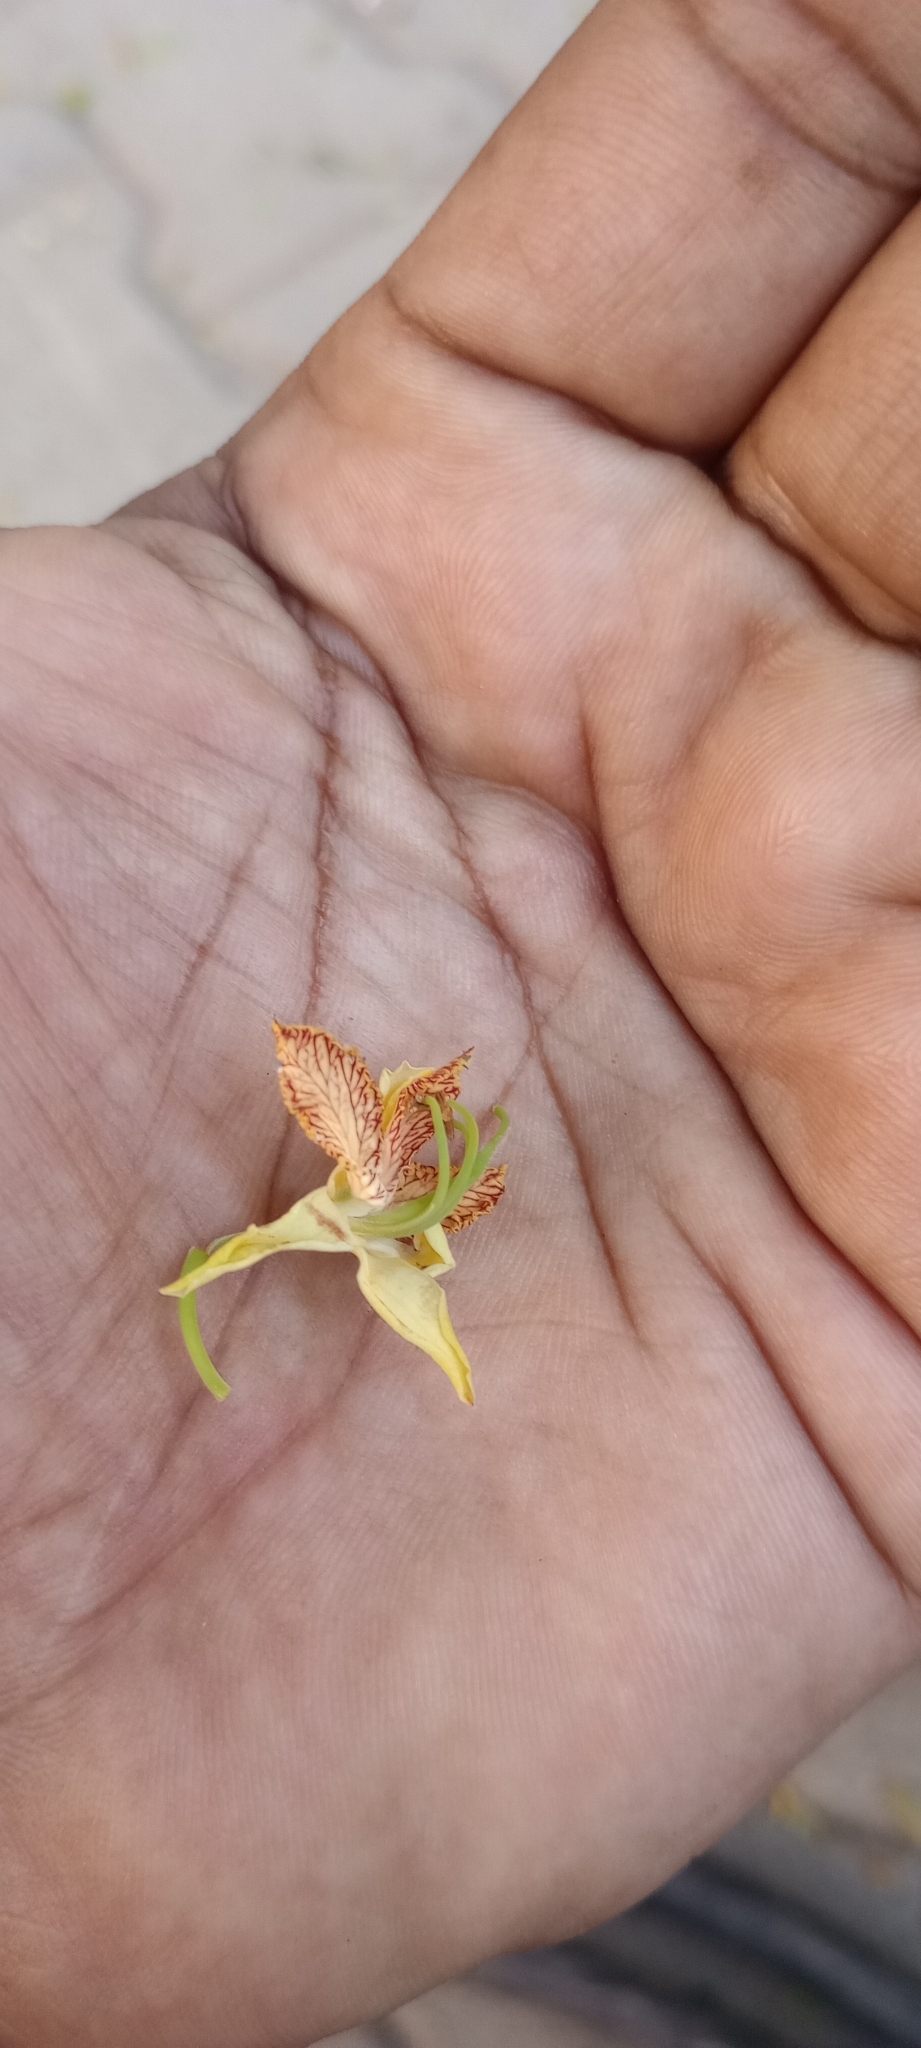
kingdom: Plantae
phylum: Tracheophyta
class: Magnoliopsida
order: Fabales
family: Fabaceae
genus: Tamarindus
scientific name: Tamarindus indica
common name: Tamarind
